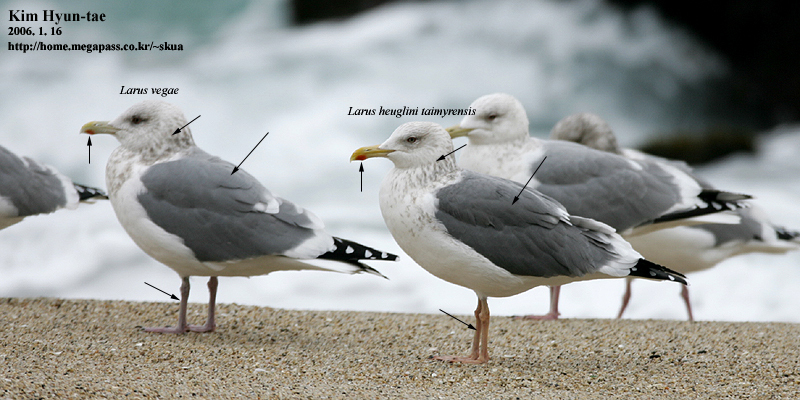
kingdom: Animalia
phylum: Chordata
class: Aves
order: Charadriiformes
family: Laridae
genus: Larus
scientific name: Larus fuscus
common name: Lesser black-backed gull
